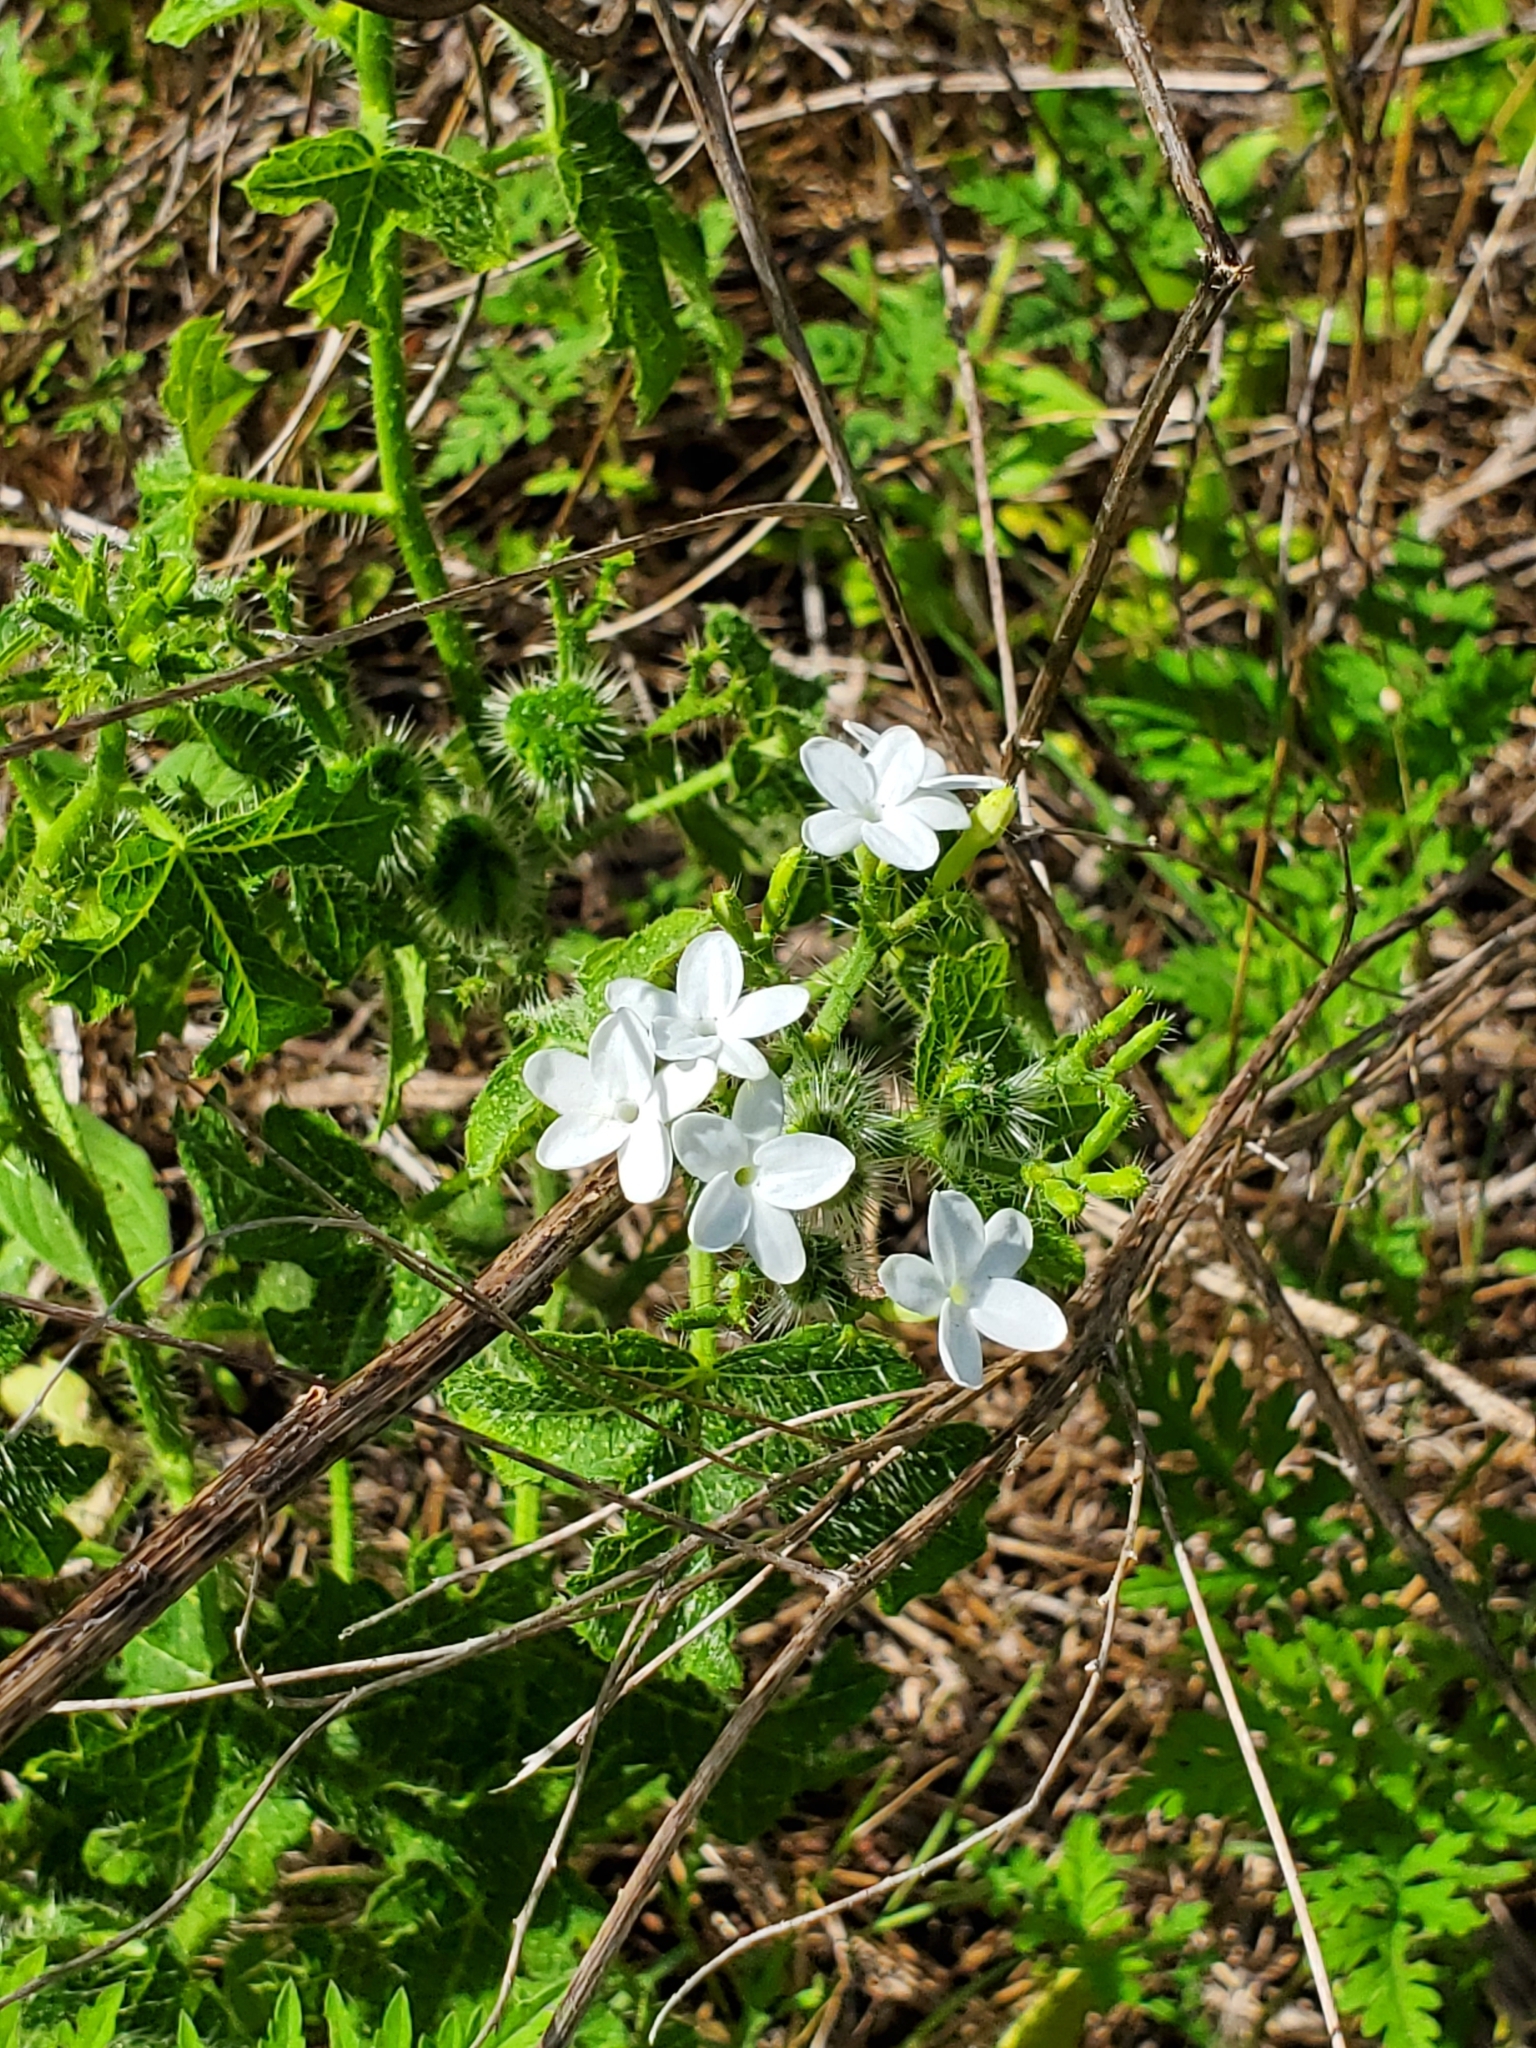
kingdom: Plantae
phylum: Tracheophyta
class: Magnoliopsida
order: Malpighiales
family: Euphorbiaceae
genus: Cnidoscolus
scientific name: Cnidoscolus stimulosus
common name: Bull-nettle
